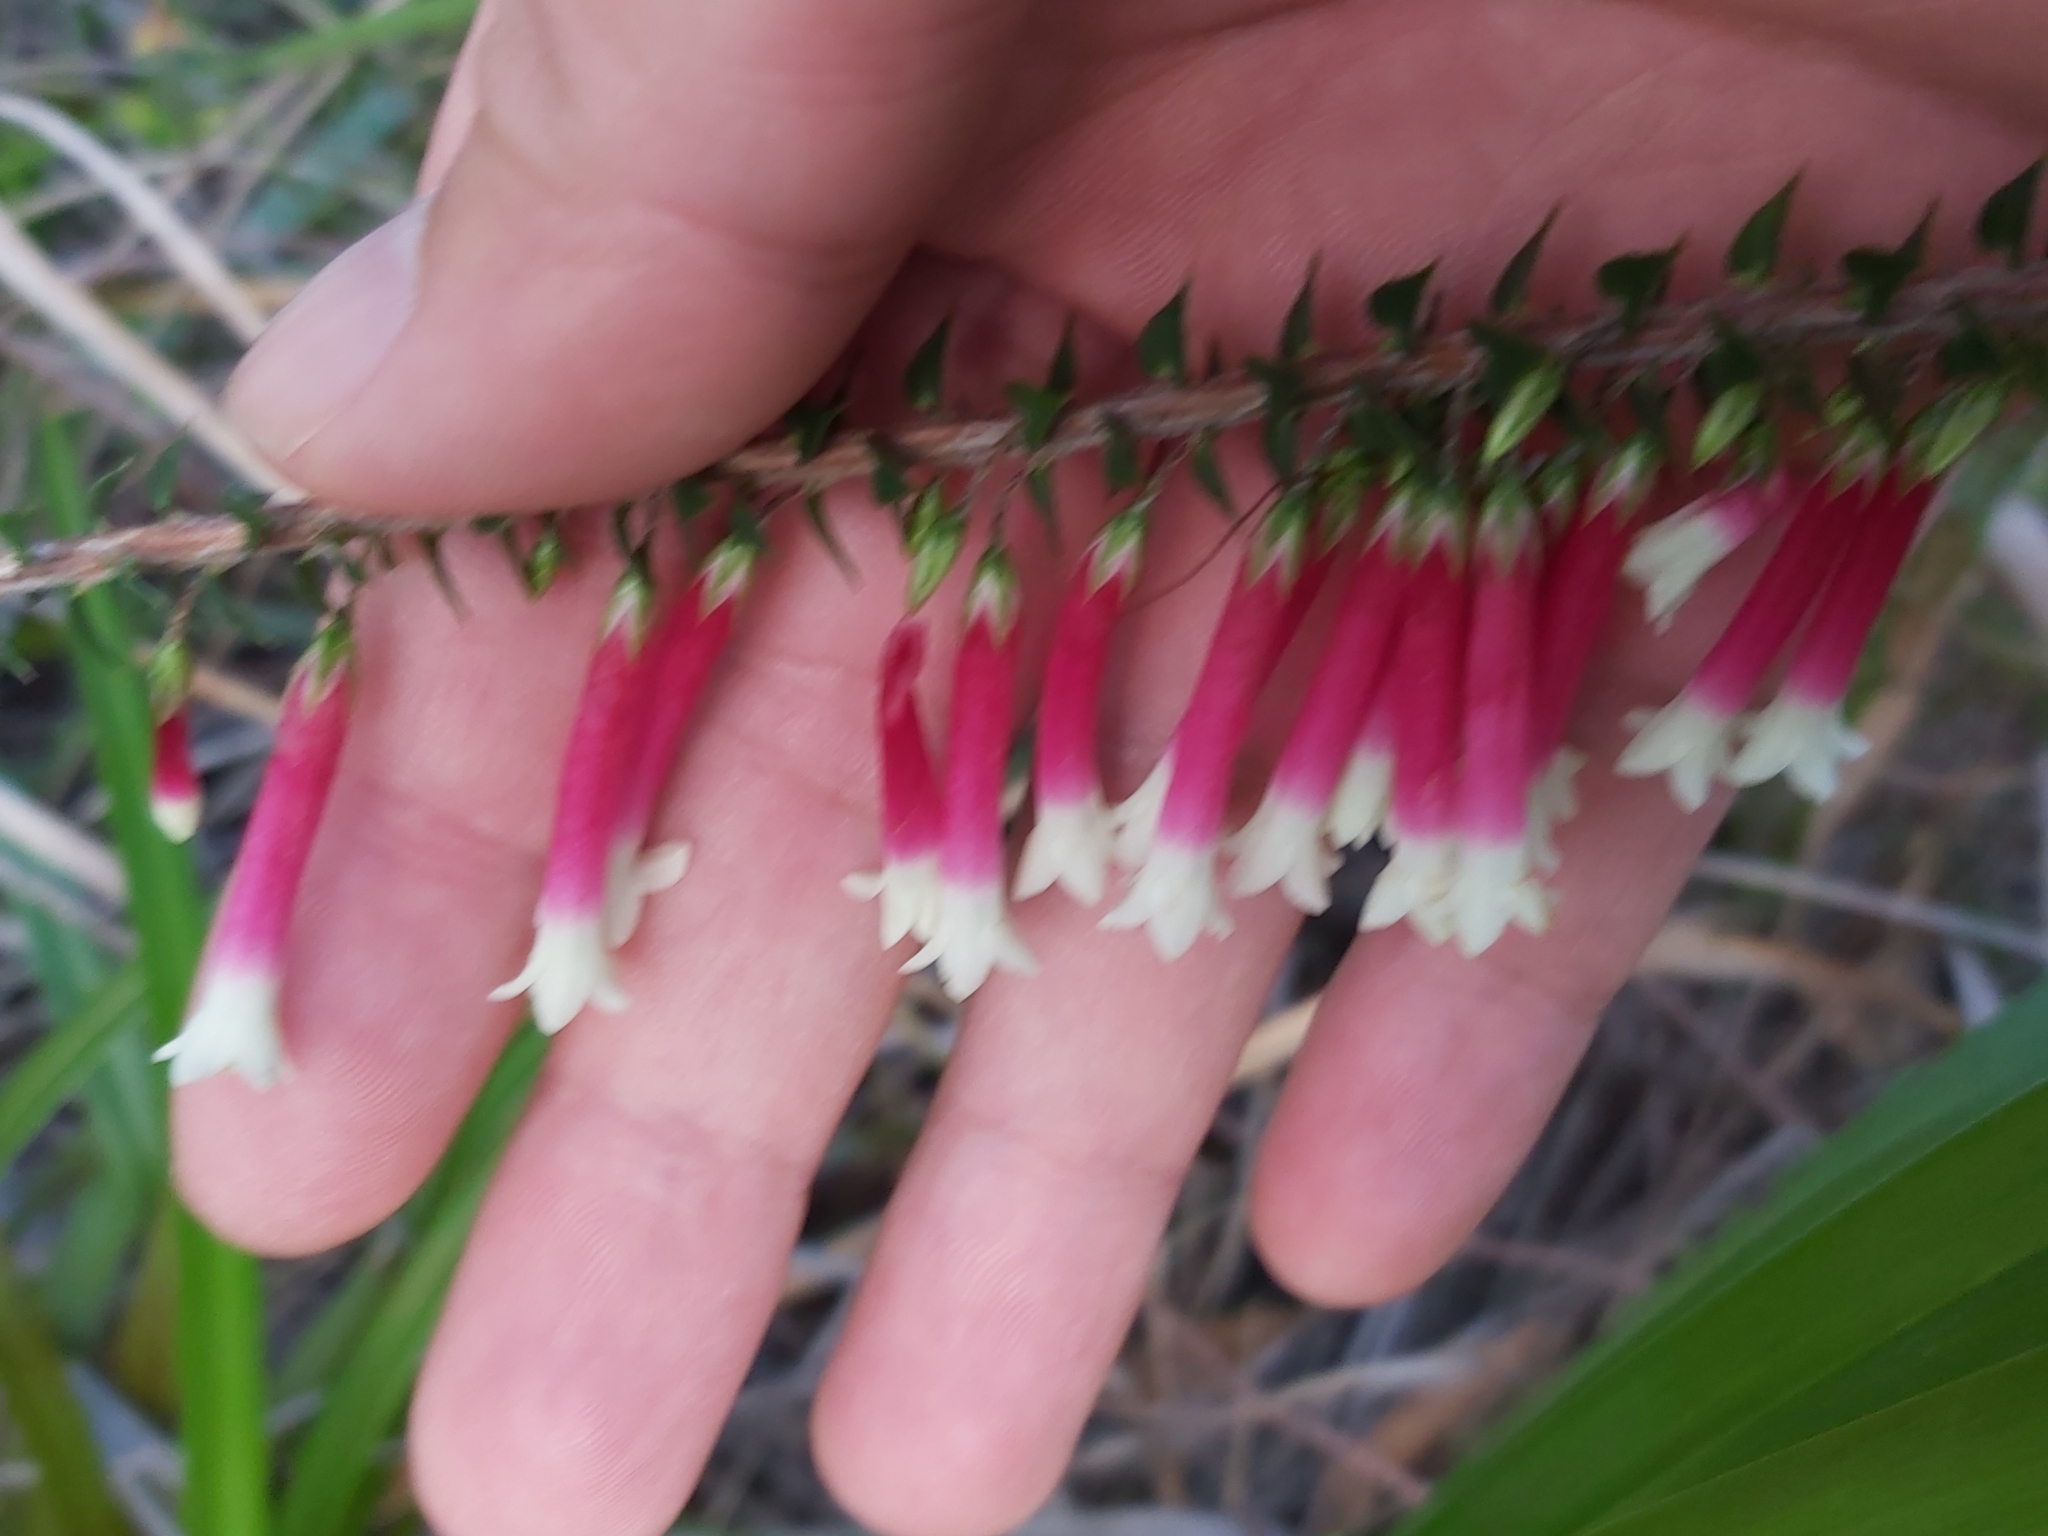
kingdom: Plantae
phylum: Tracheophyta
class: Magnoliopsida
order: Ericales
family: Ericaceae
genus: Epacris
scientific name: Epacris longiflora
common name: Fuchsia-heath
